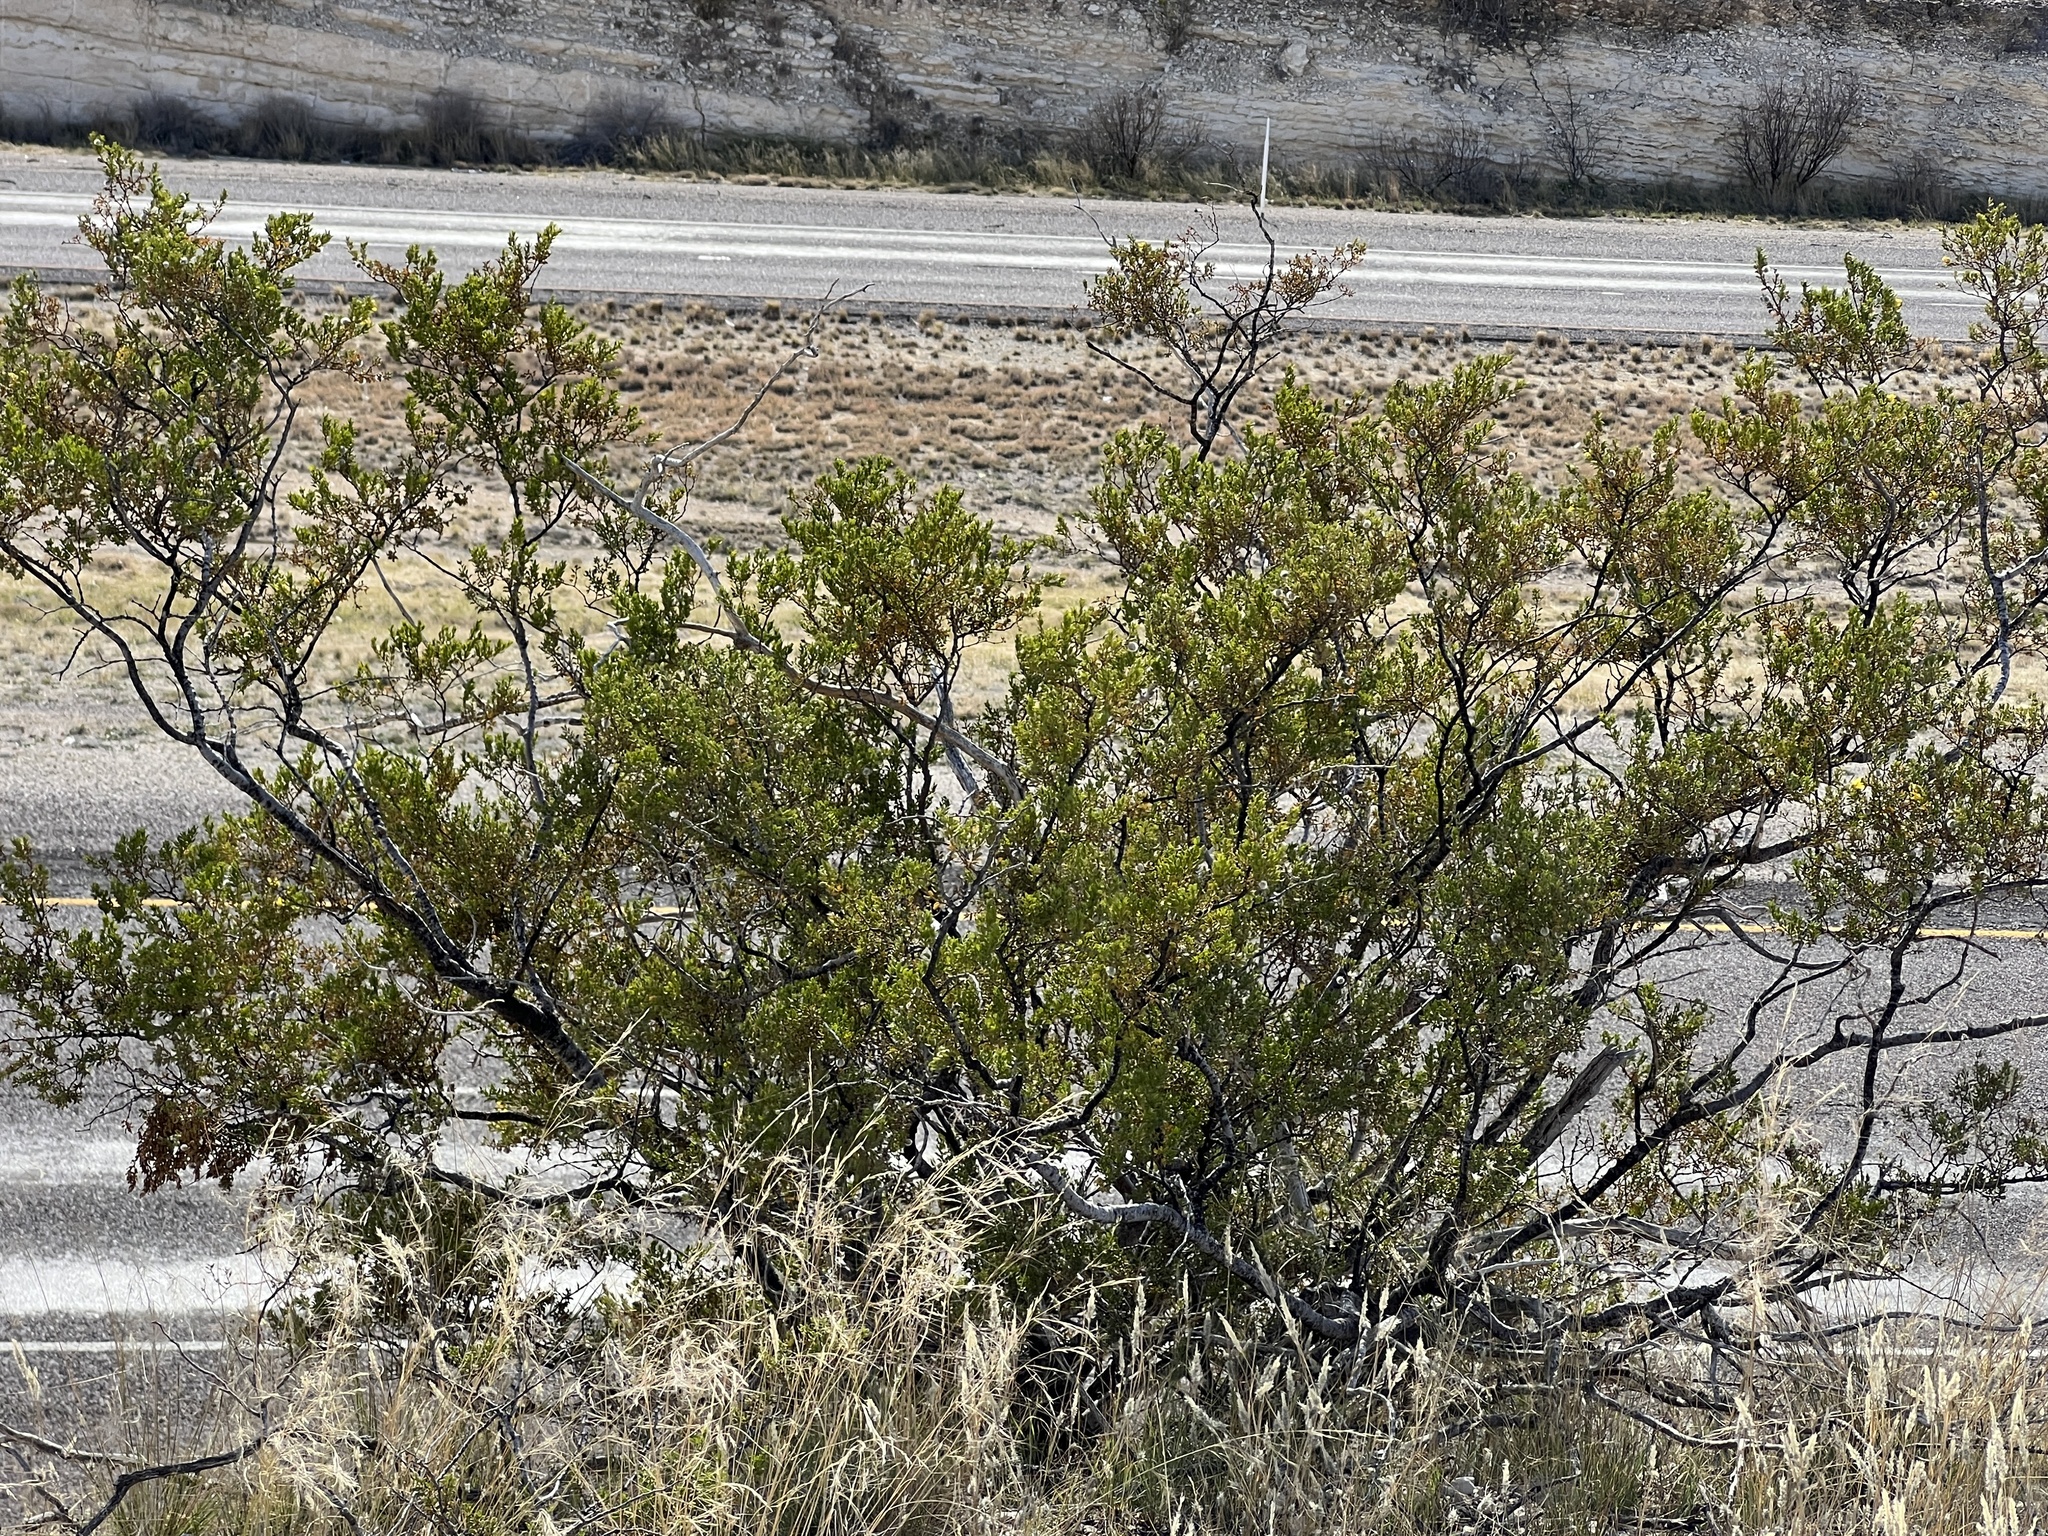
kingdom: Plantae
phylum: Tracheophyta
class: Magnoliopsida
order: Zygophyllales
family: Zygophyllaceae
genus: Larrea
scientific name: Larrea tridentata
